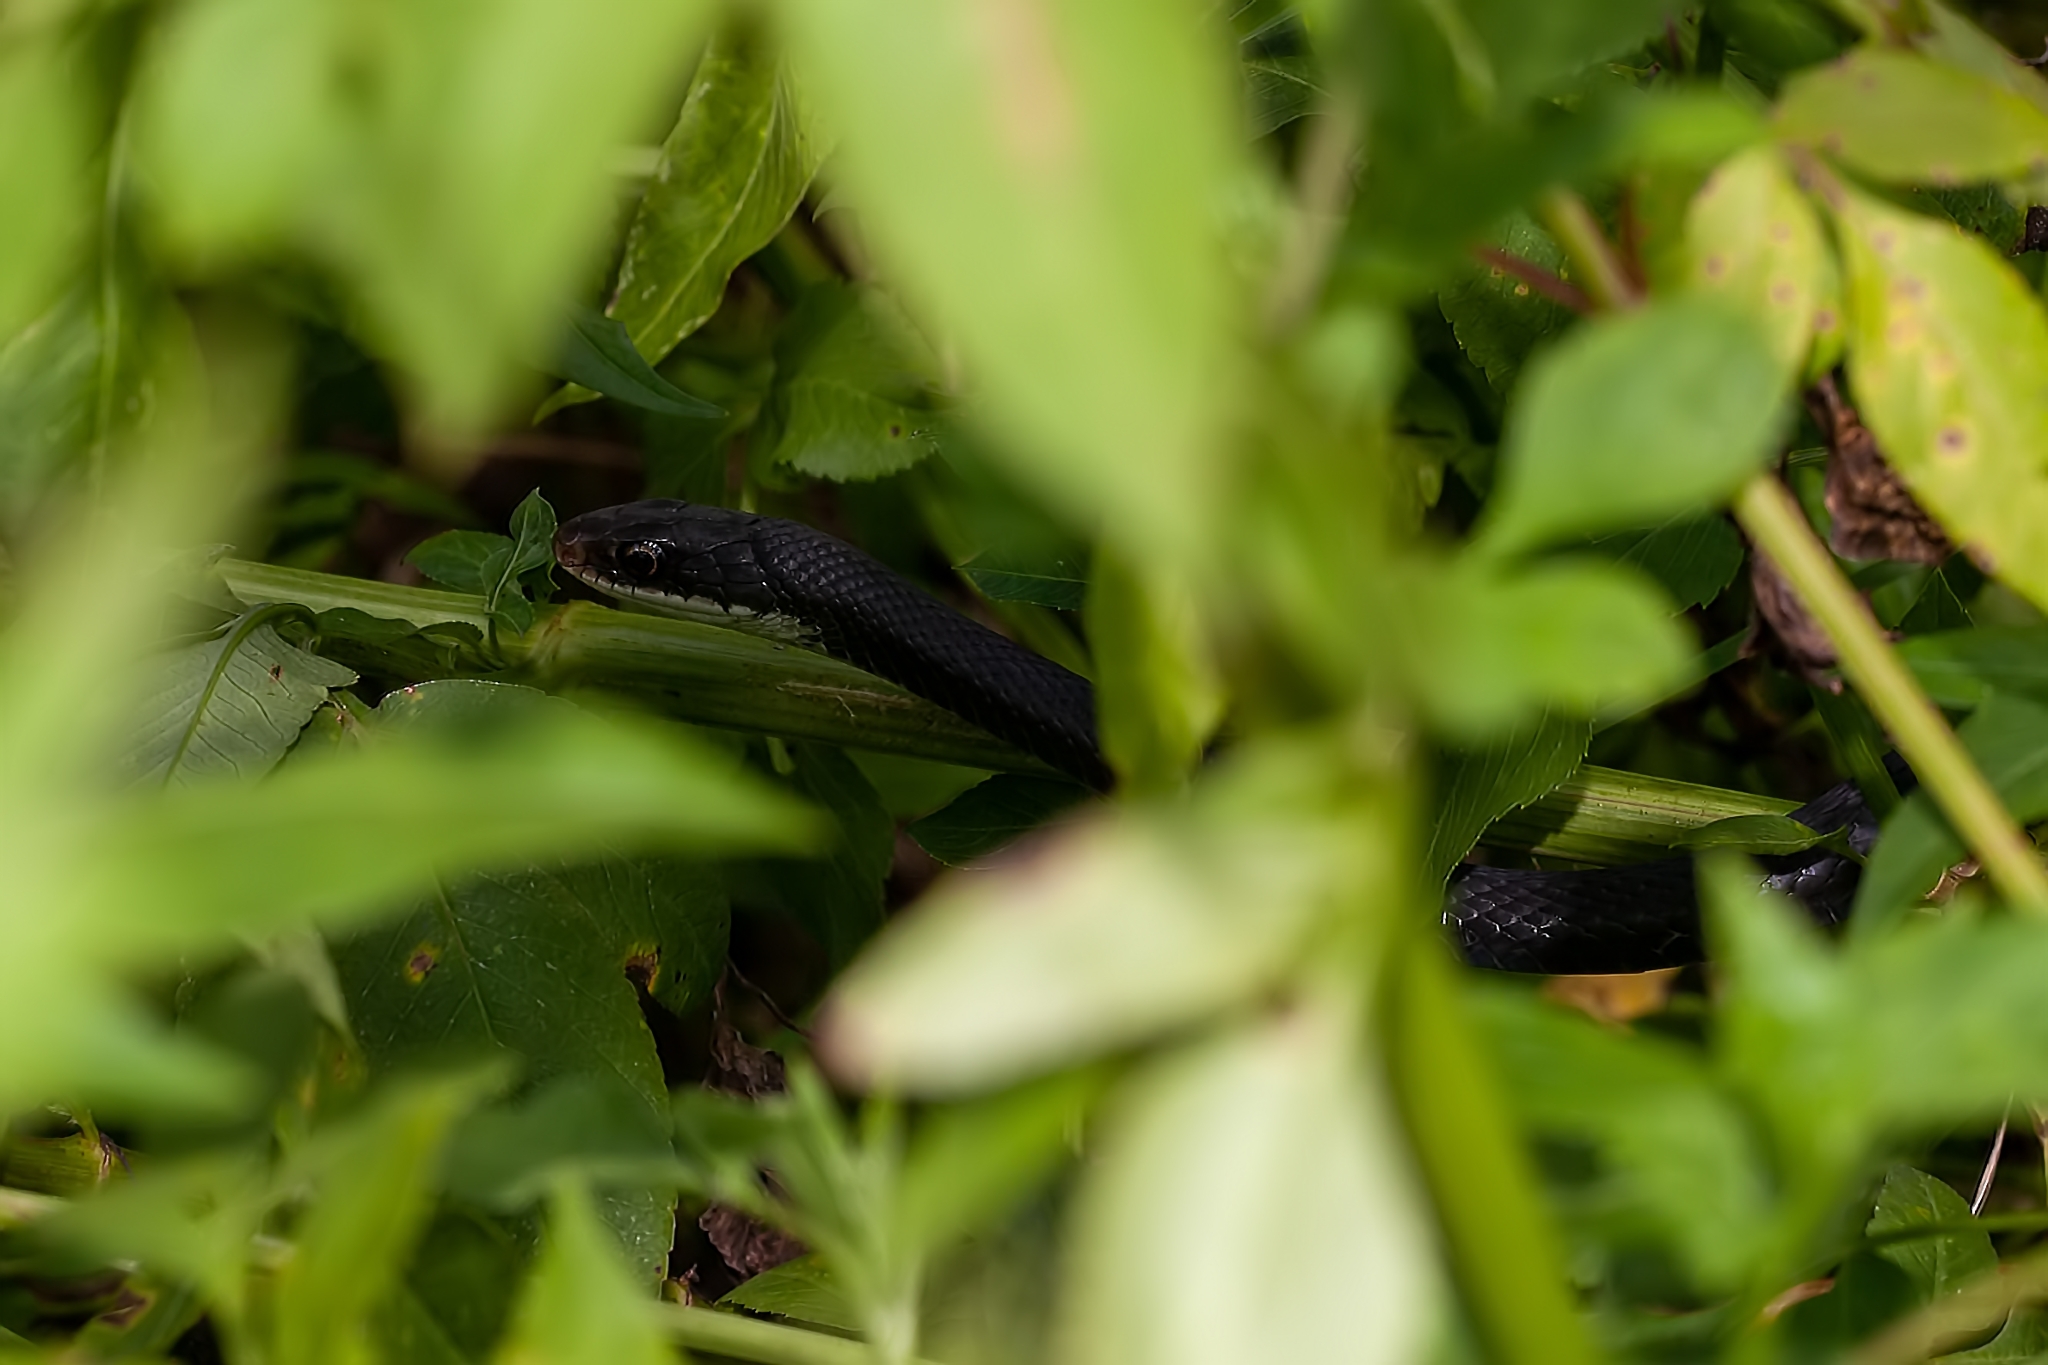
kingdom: Animalia
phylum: Chordata
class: Squamata
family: Colubridae
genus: Coluber
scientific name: Coluber constrictor
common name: Eastern racer
